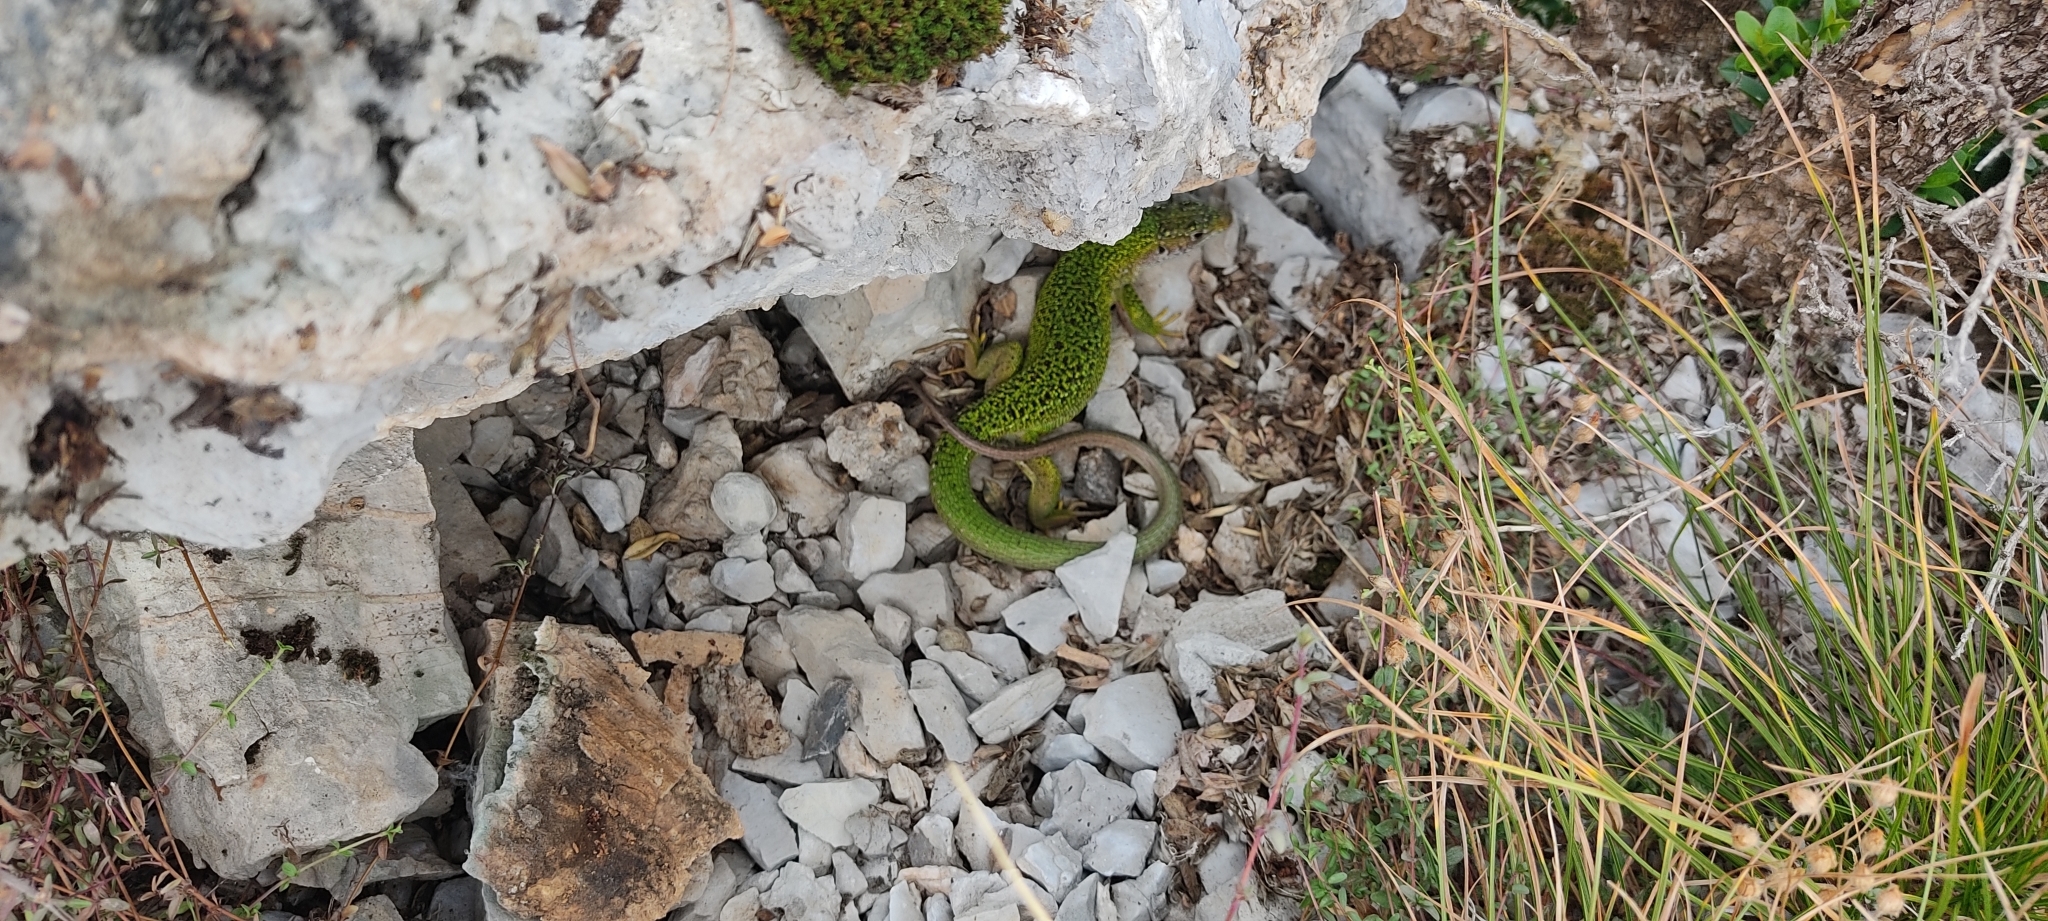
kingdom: Animalia
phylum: Chordata
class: Squamata
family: Lacertidae
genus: Lacerta
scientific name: Lacerta bilineata
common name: Western green lizard
